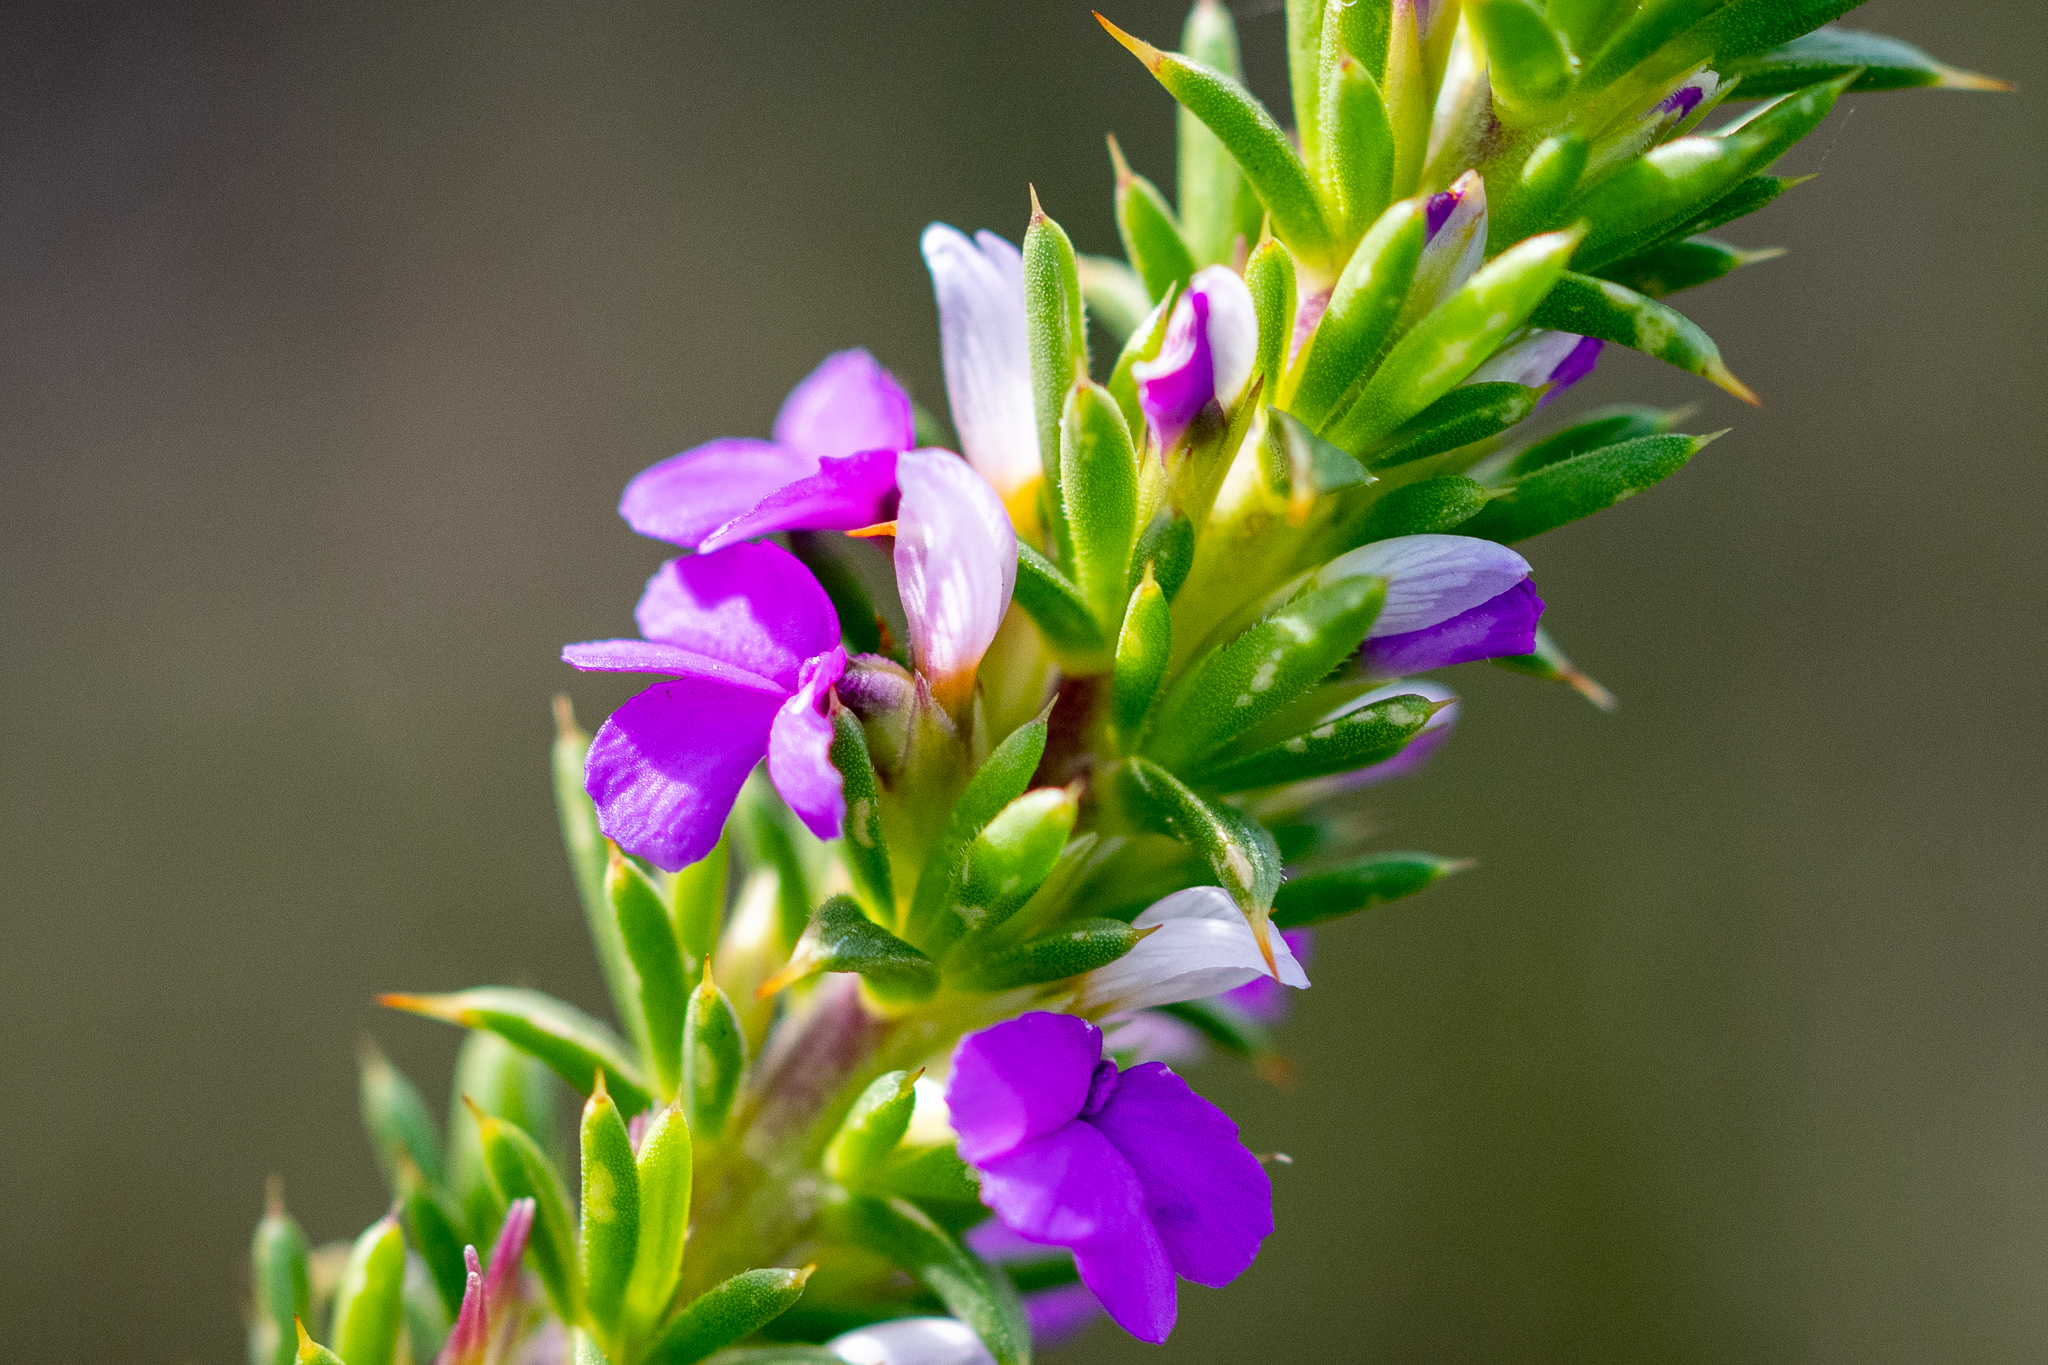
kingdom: Plantae
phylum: Tracheophyta
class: Magnoliopsida
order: Fabales
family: Polygalaceae
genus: Muraltia
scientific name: Muraltia heisteria
